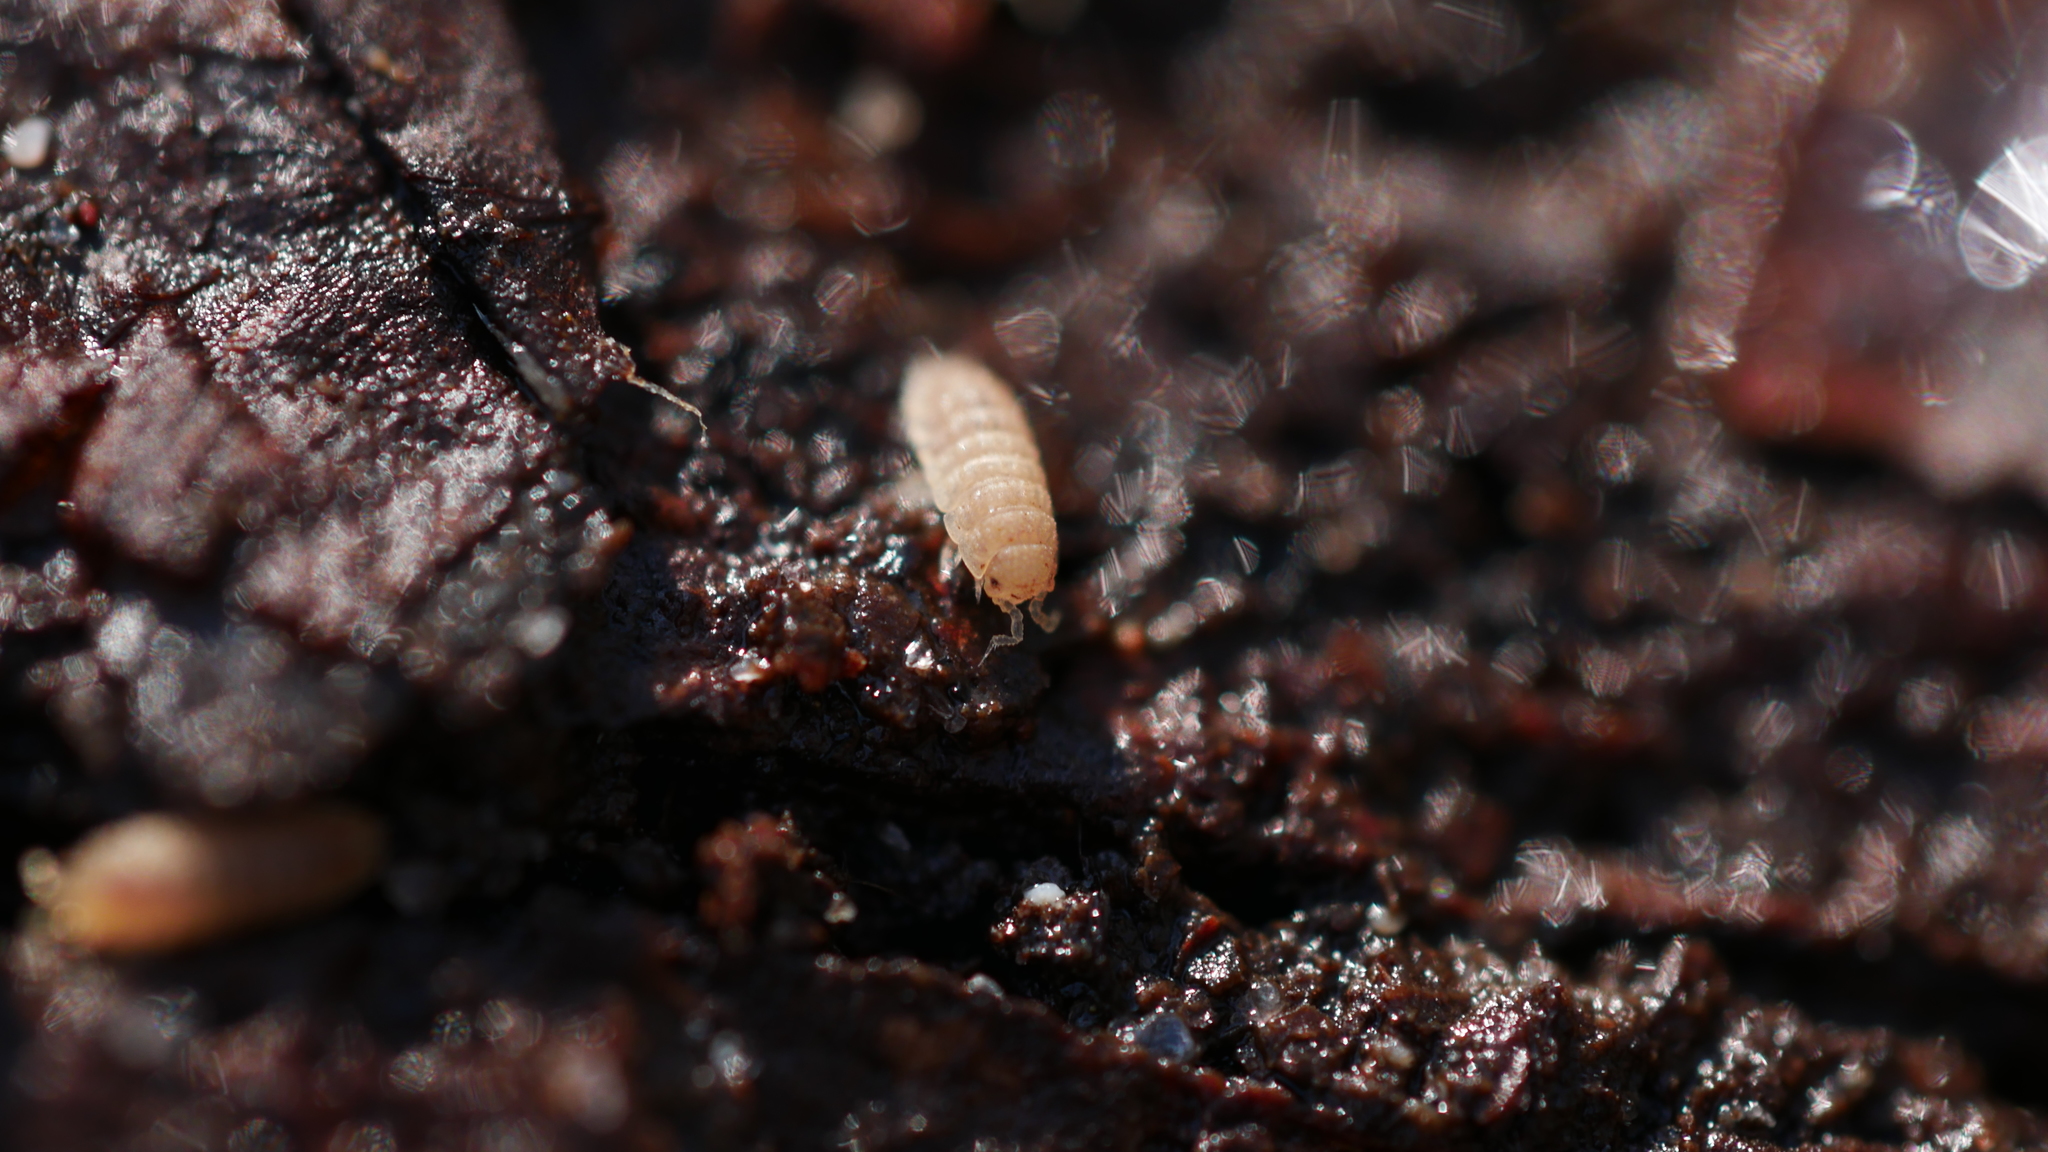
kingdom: Animalia
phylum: Arthropoda
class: Malacostraca
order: Isopoda
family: Trichoniscidae
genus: Haplophthalmus
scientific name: Haplophthalmus danicus
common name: Pillbug
